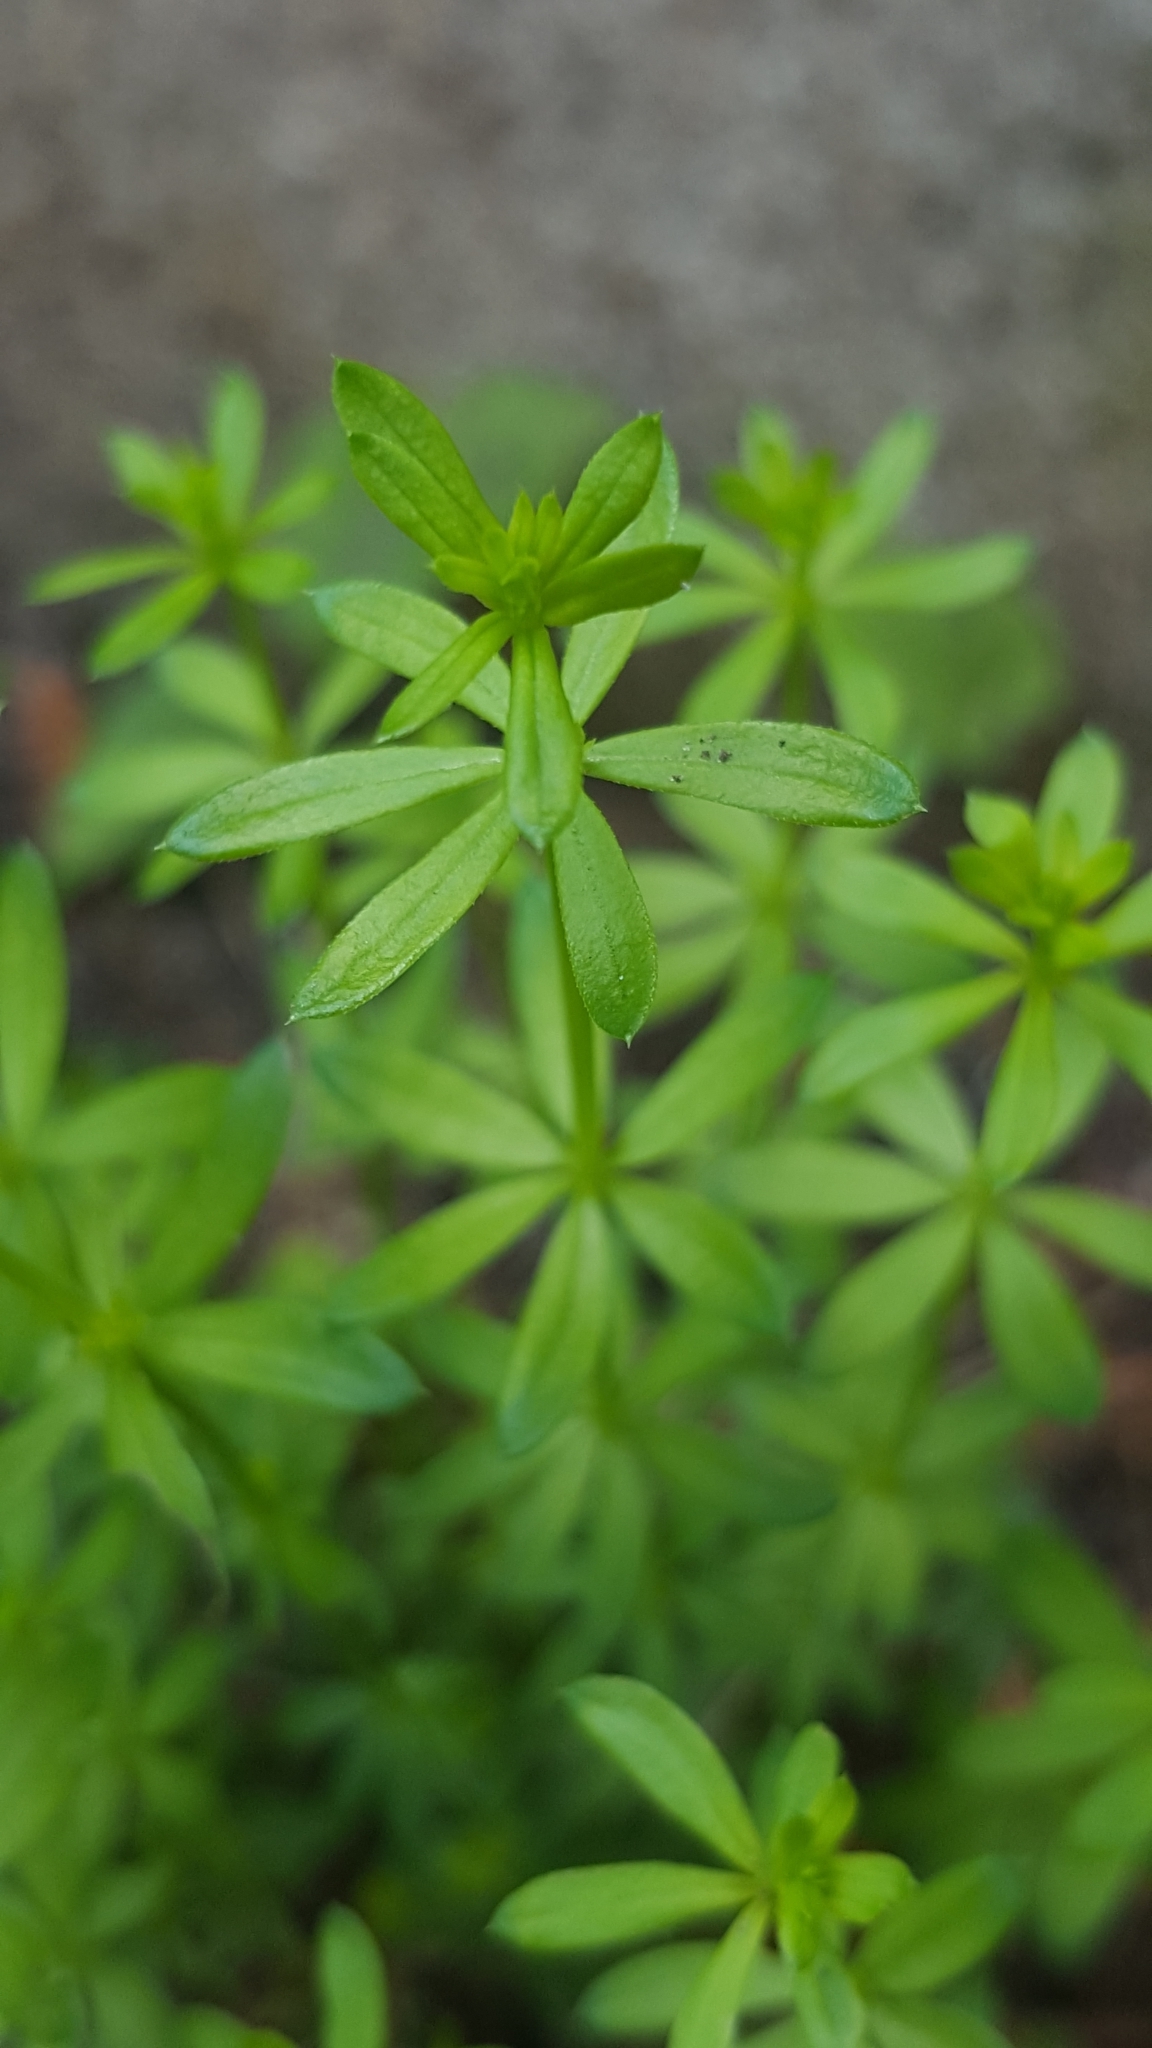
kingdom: Plantae
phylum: Tracheophyta
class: Magnoliopsida
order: Gentianales
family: Rubiaceae
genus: Galium
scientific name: Galium mollugo
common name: Hedge bedstraw
